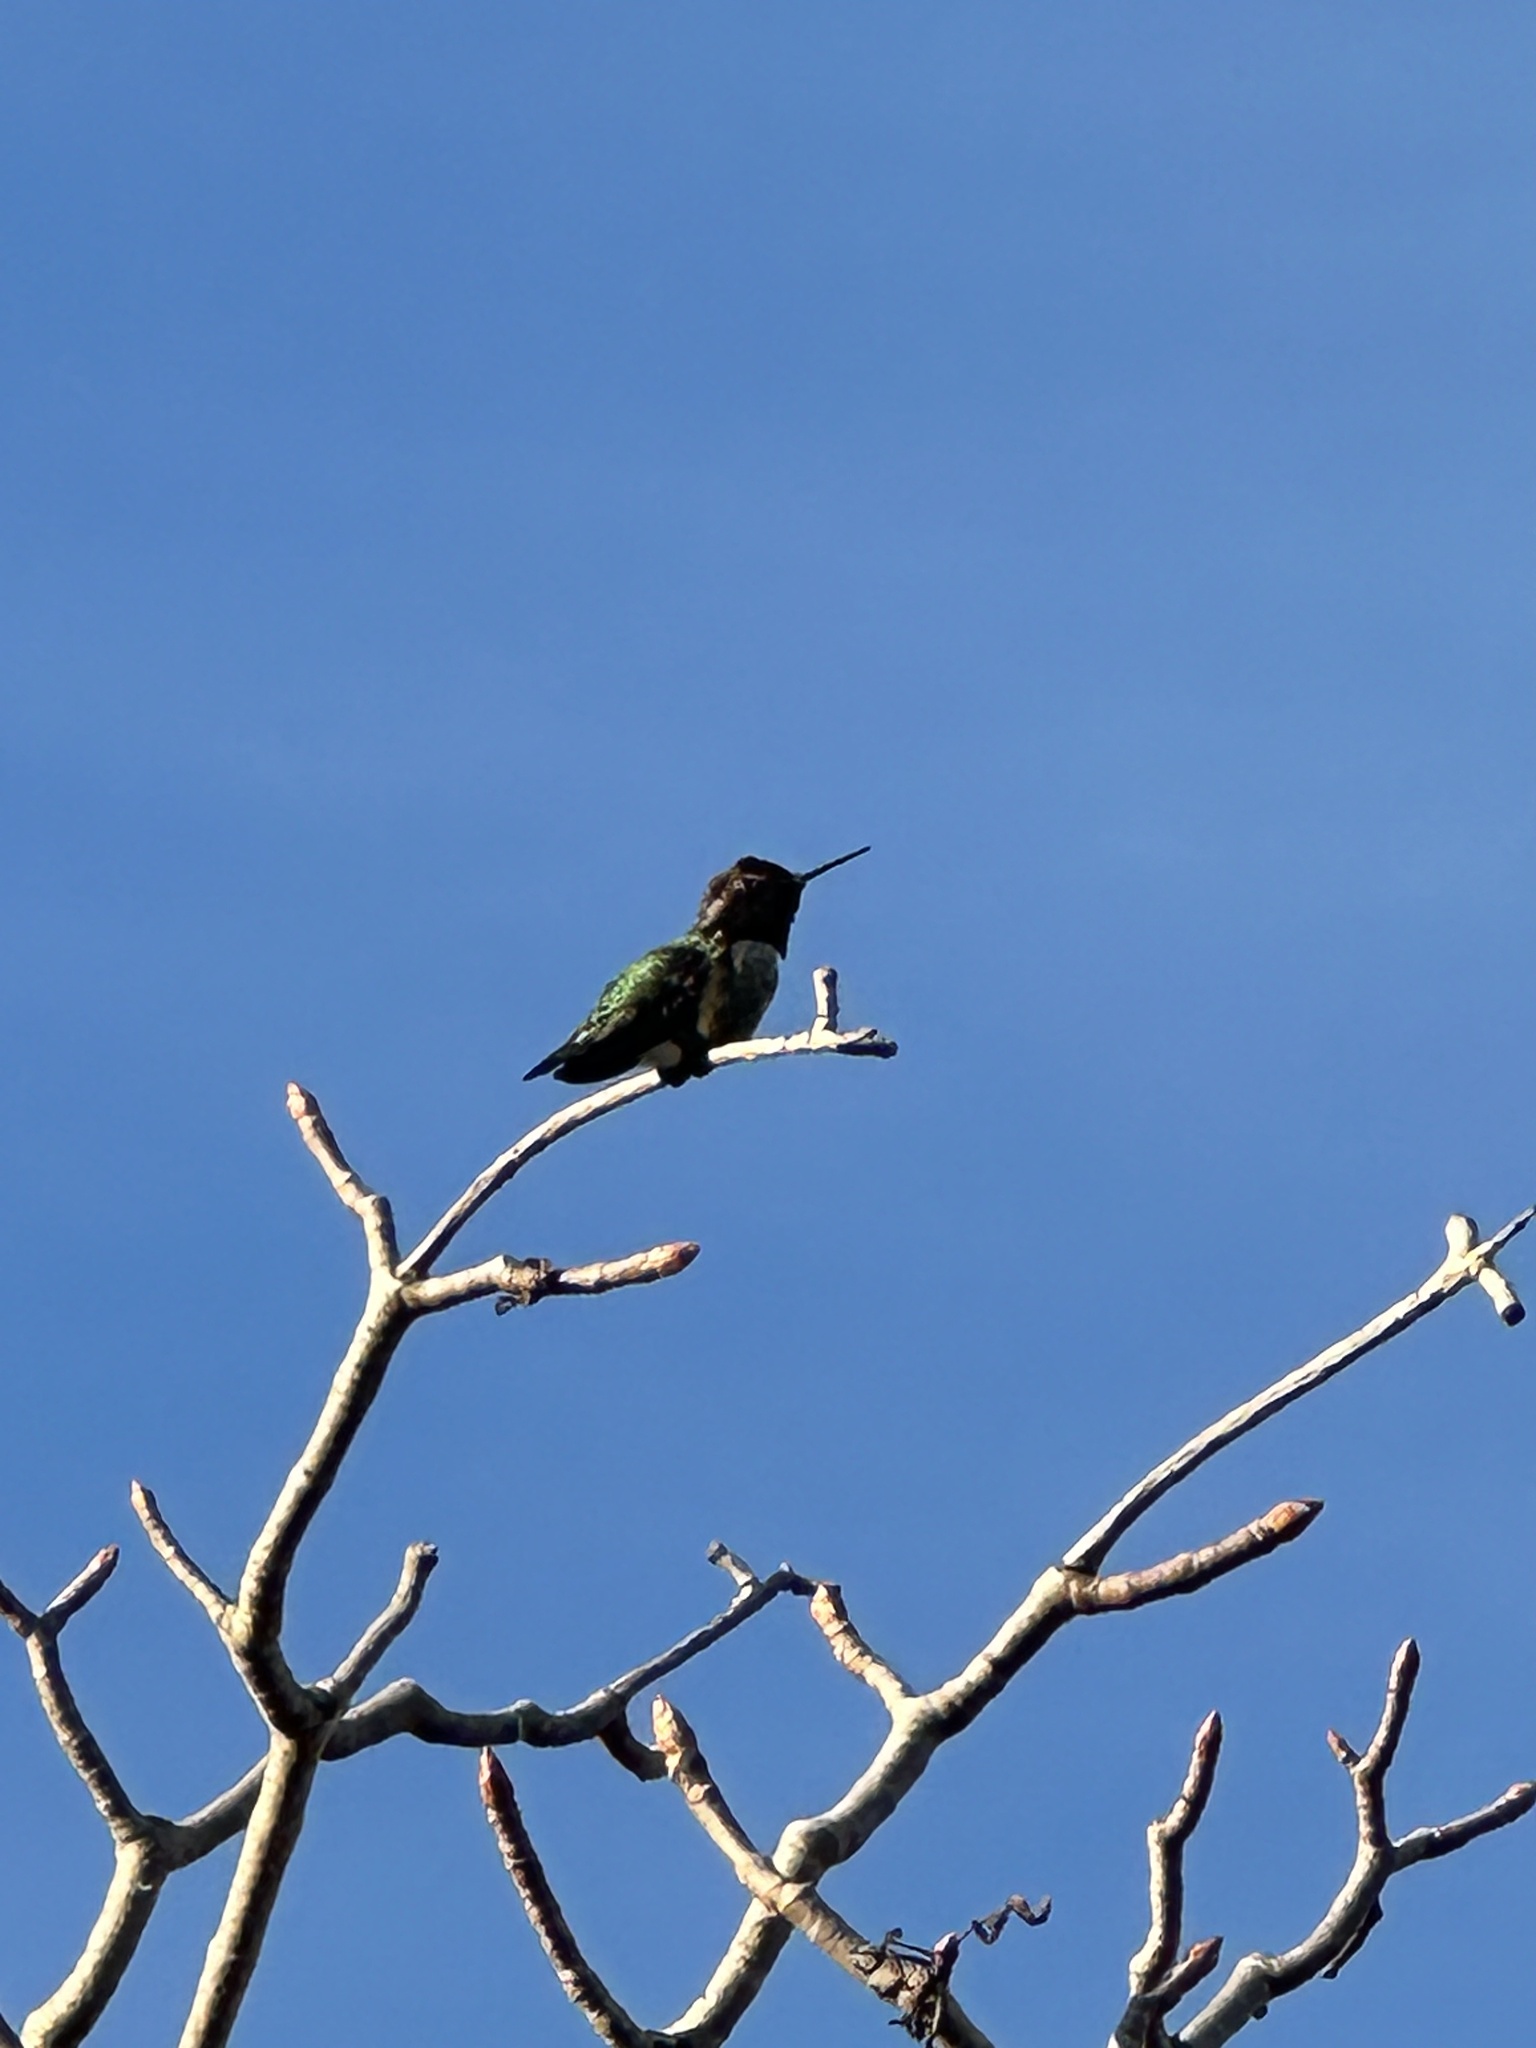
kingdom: Animalia
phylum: Chordata
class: Aves
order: Apodiformes
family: Trochilidae
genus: Calypte
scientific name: Calypte anna
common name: Anna's hummingbird
